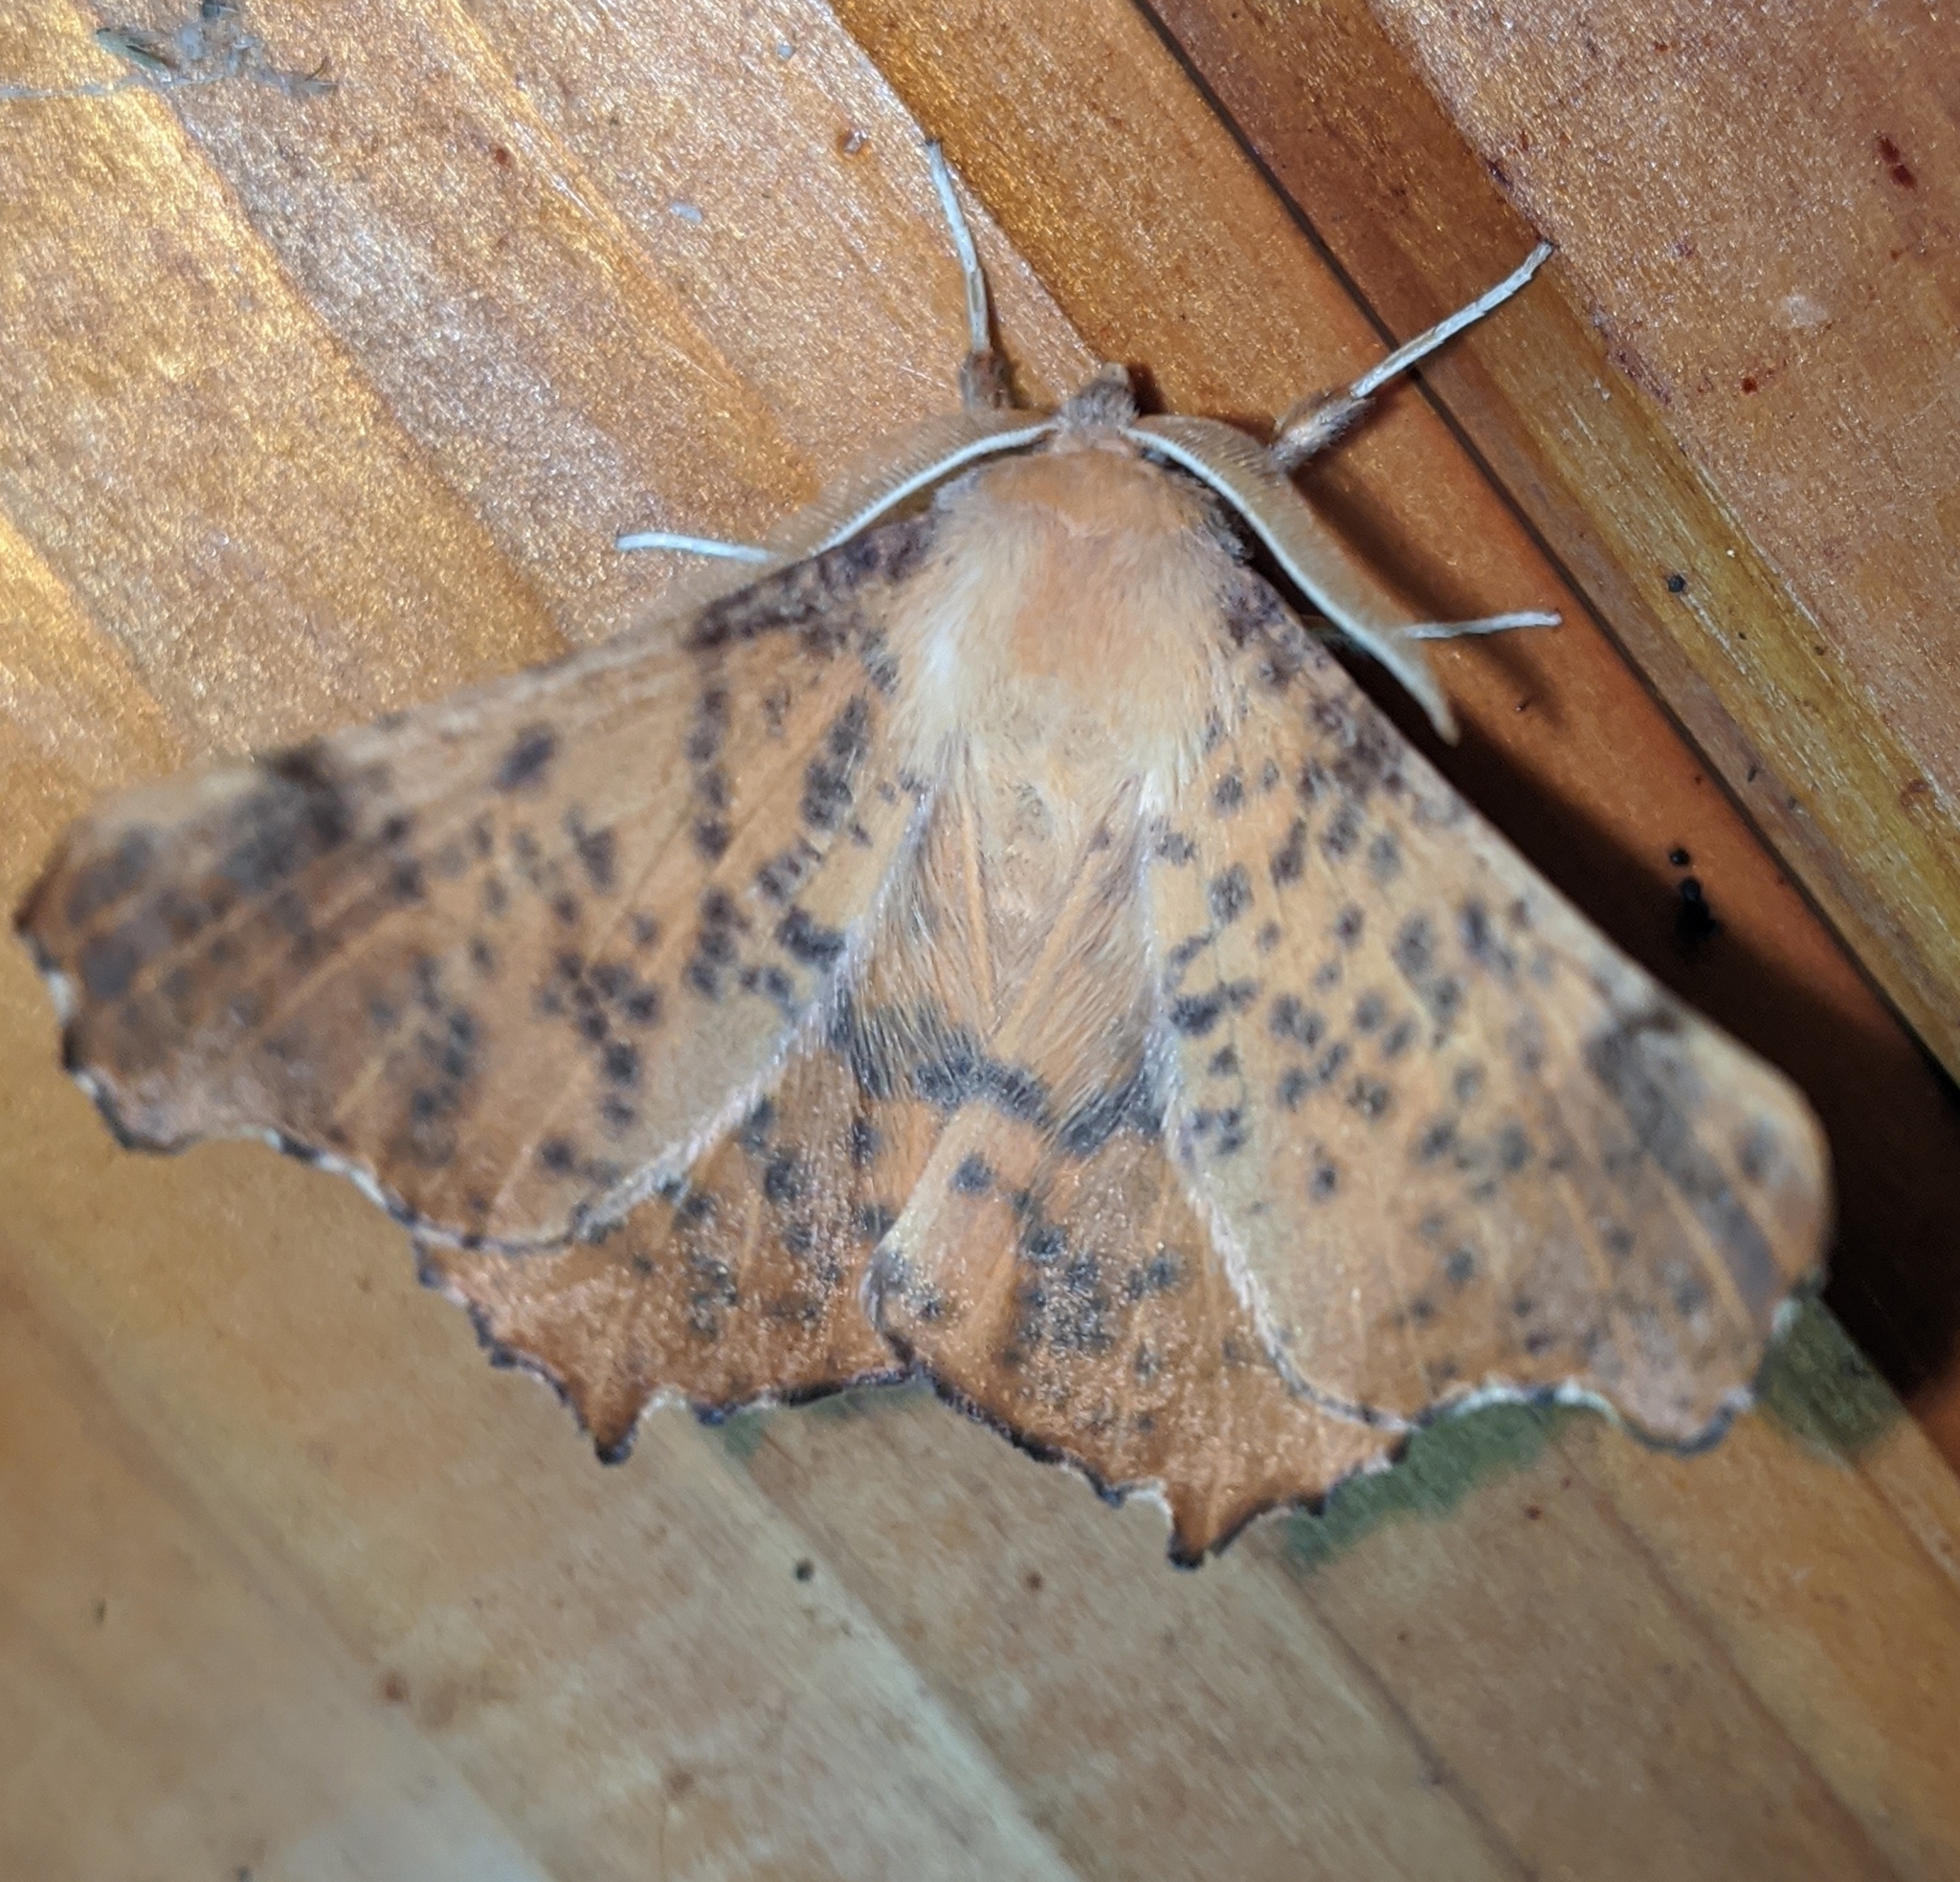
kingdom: Animalia
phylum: Arthropoda
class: Insecta
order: Lepidoptera
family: Geometridae
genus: Ennomos
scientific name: Ennomos magnaria
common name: Maple spanworm
